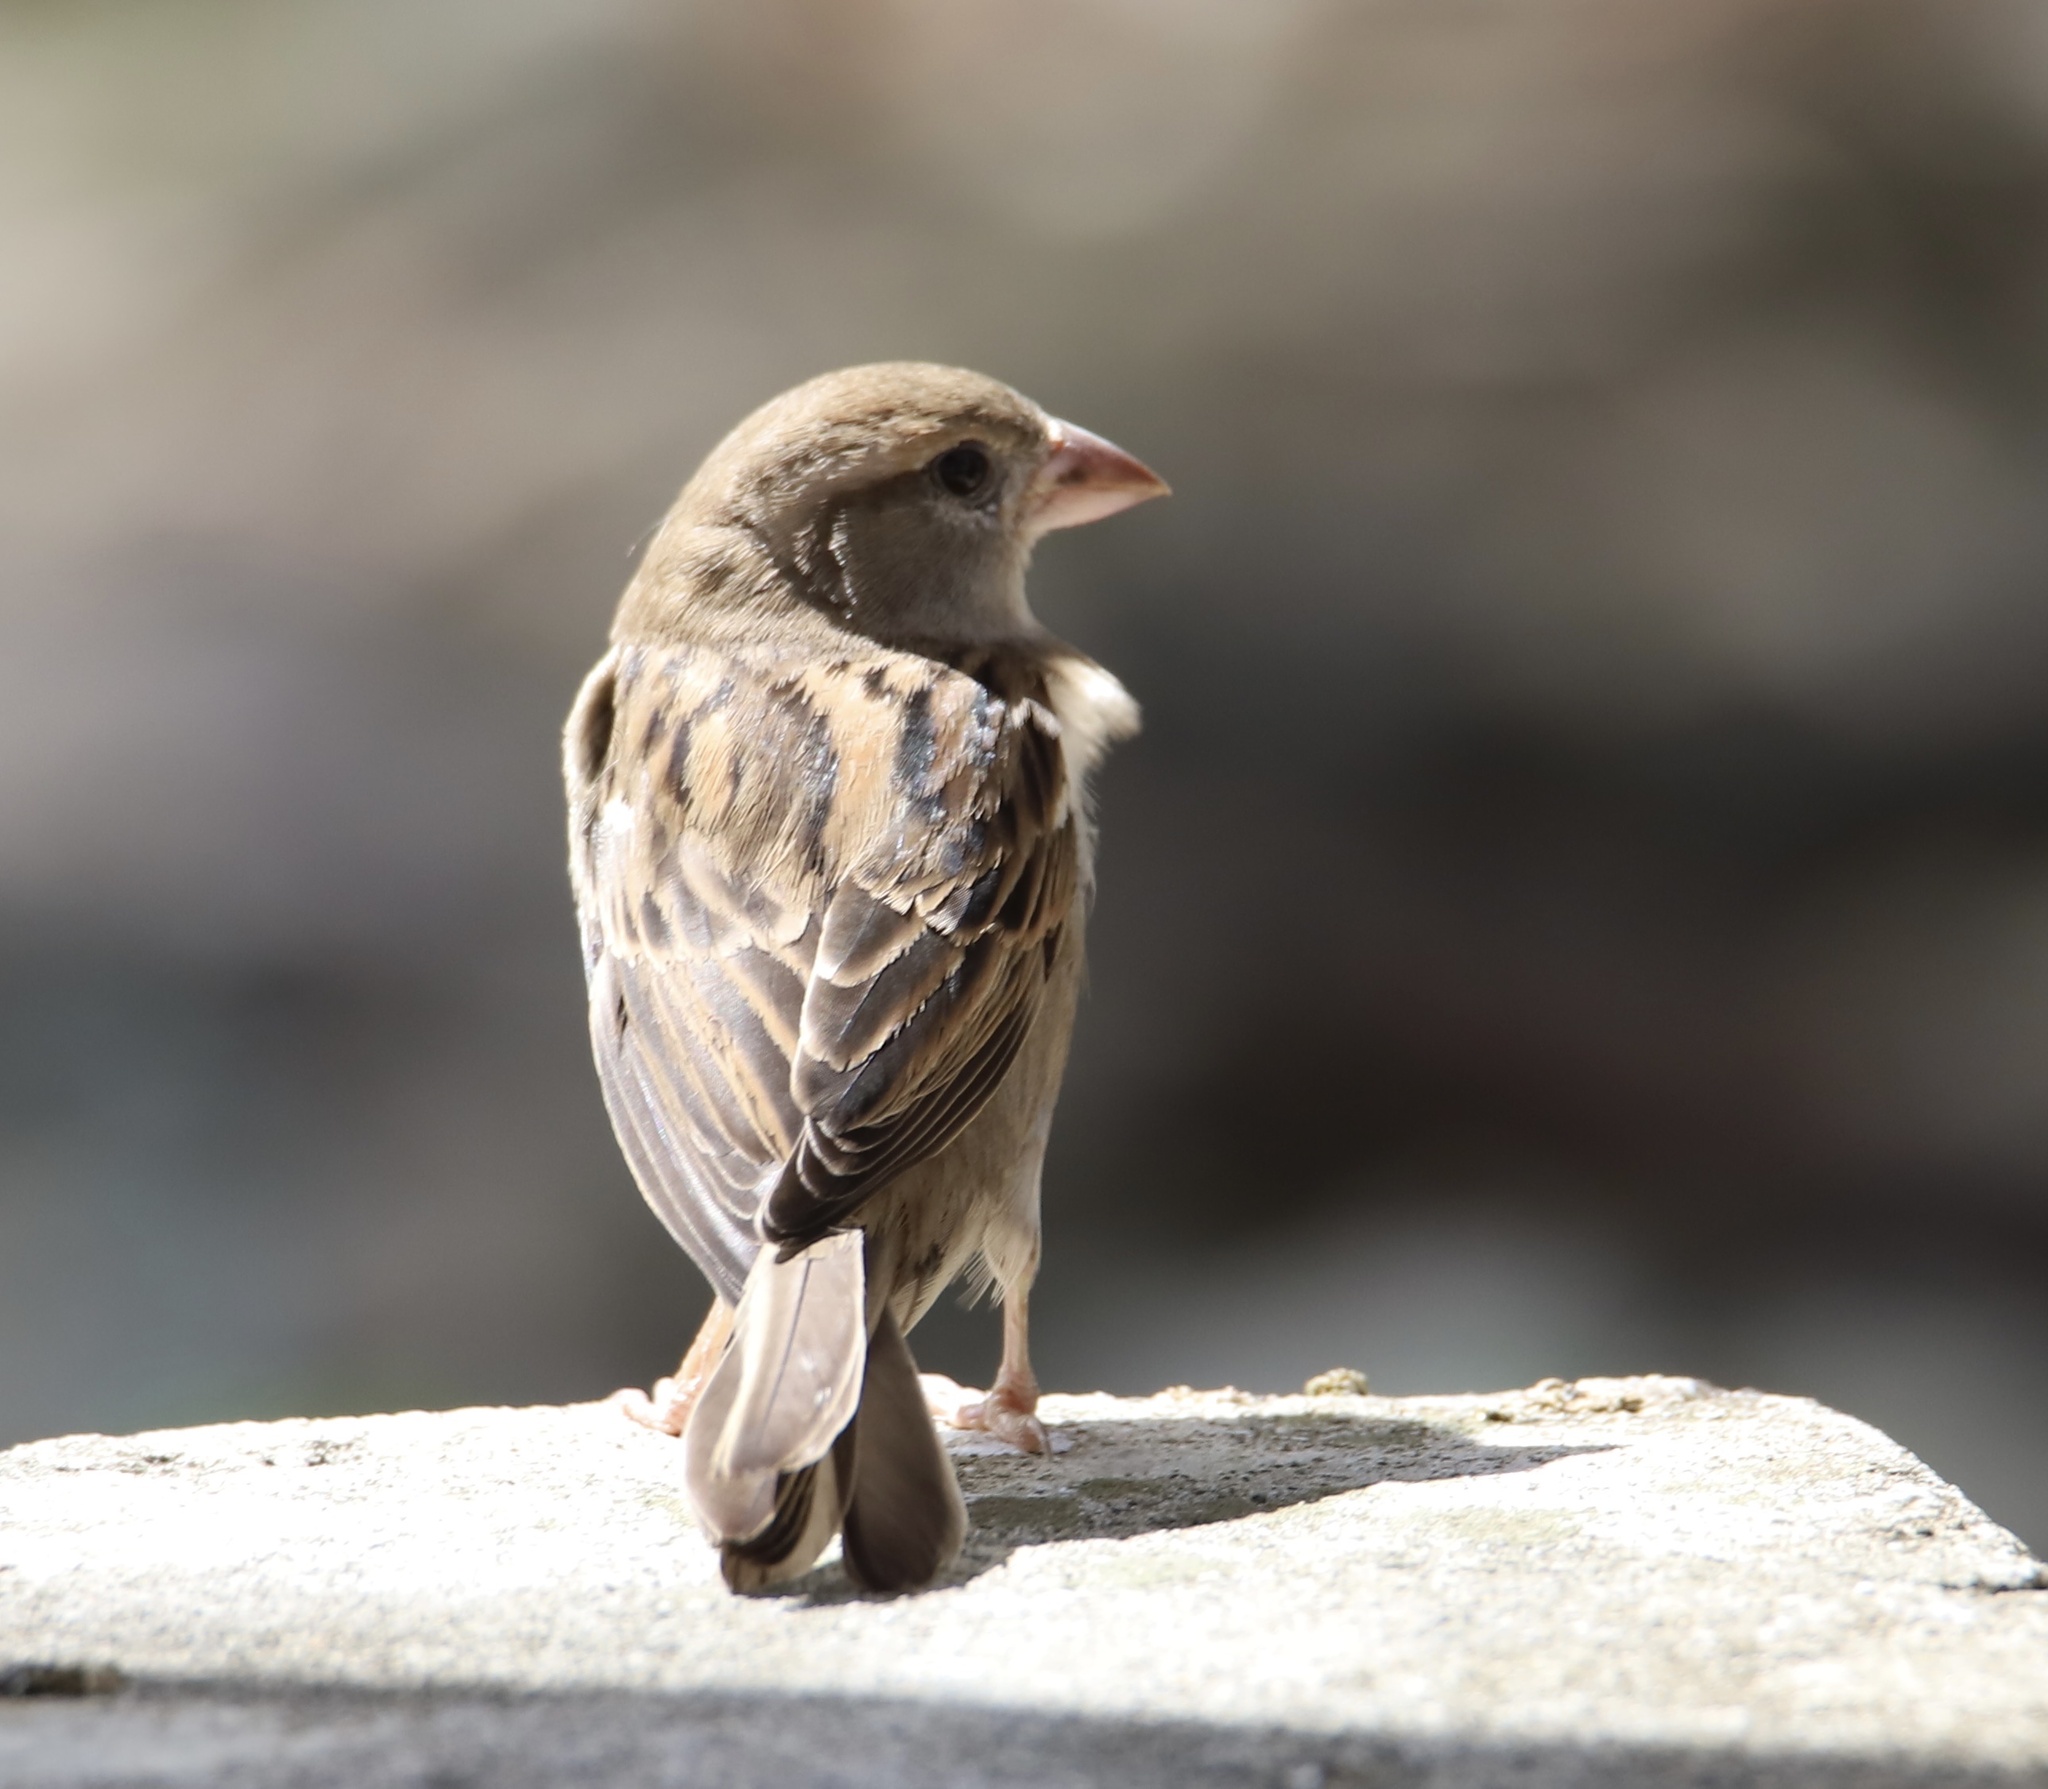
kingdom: Animalia
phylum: Chordata
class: Aves
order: Passeriformes
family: Passeridae
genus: Passer
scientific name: Passer domesticus
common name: House sparrow
